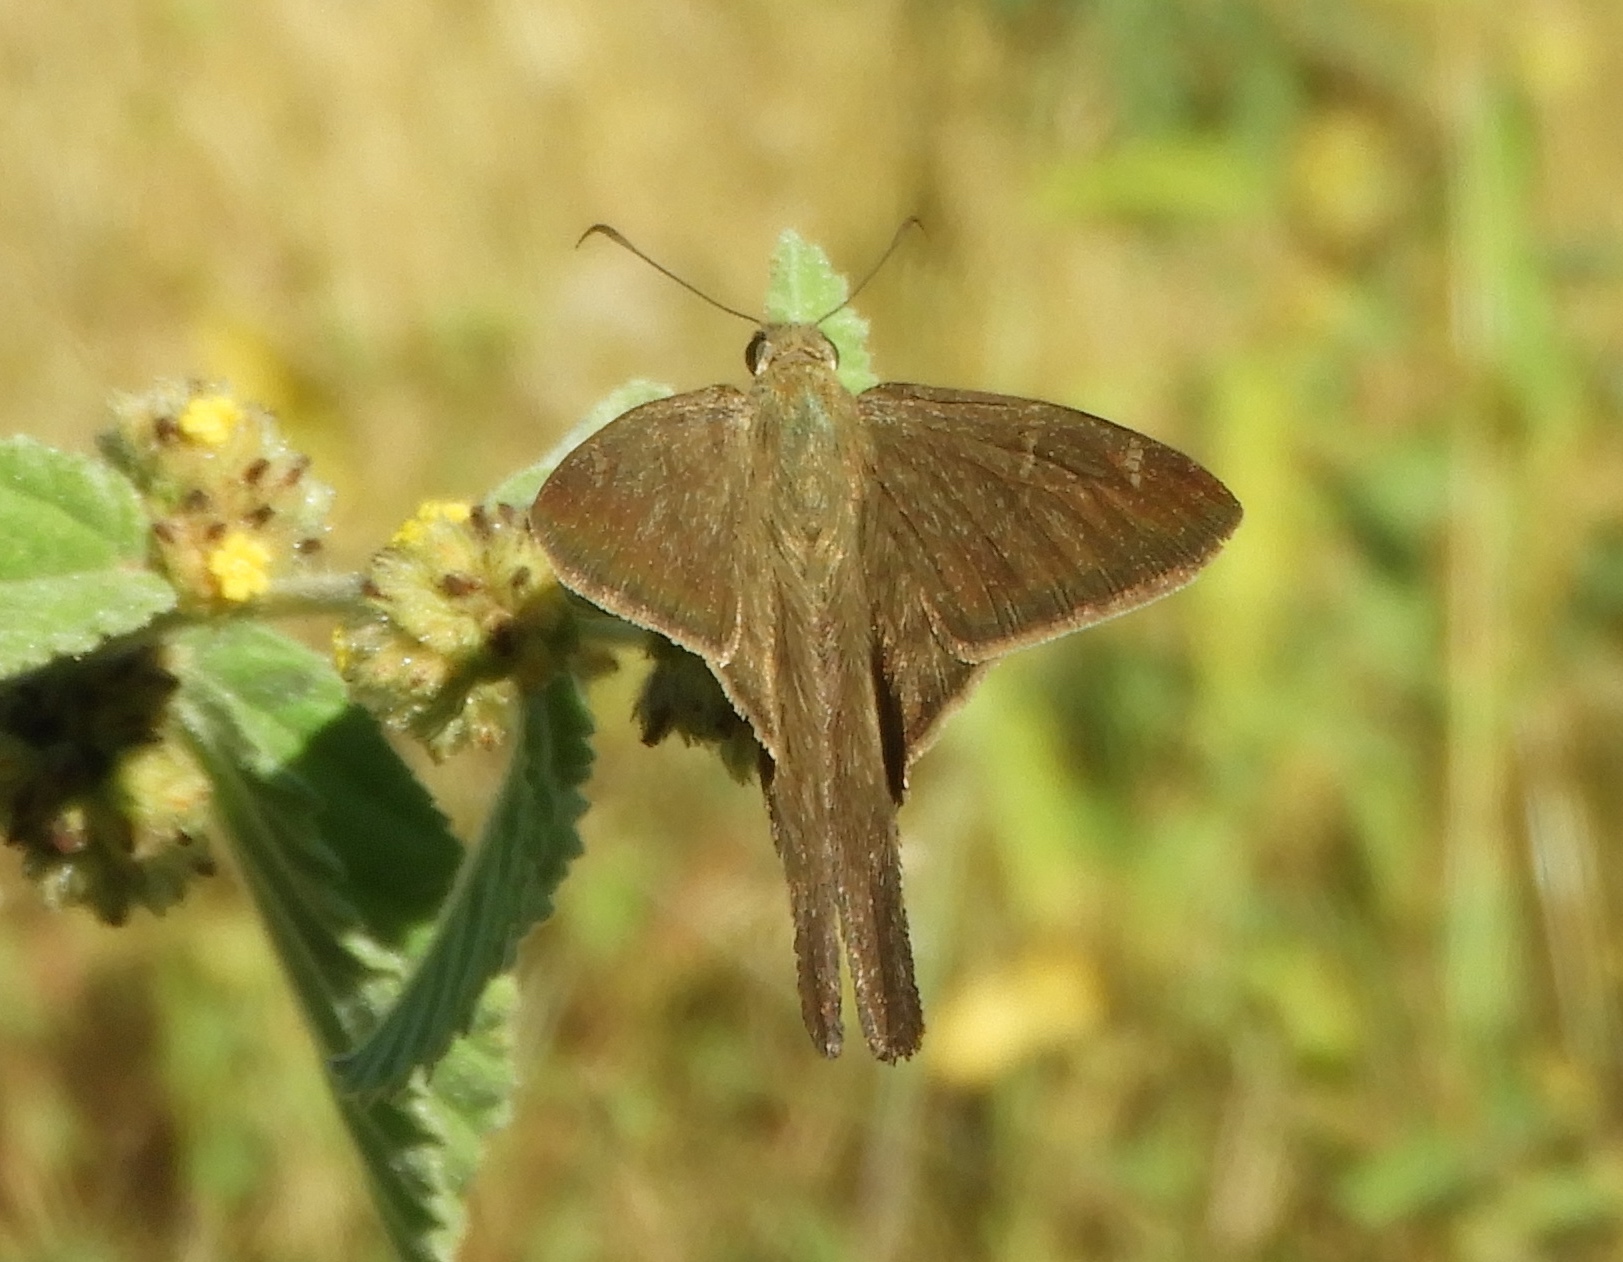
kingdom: Animalia
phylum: Arthropoda
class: Insecta
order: Lepidoptera
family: Hesperiidae
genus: Urbanus
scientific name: Urbanus procne
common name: Brown longtail
